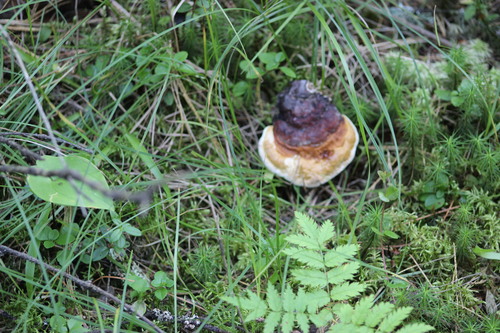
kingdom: Fungi
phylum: Basidiomycota
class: Agaricomycetes
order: Polyporales
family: Fomitopsidaceae
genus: Fomitopsis
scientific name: Fomitopsis pinicola
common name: Red-belted bracket
